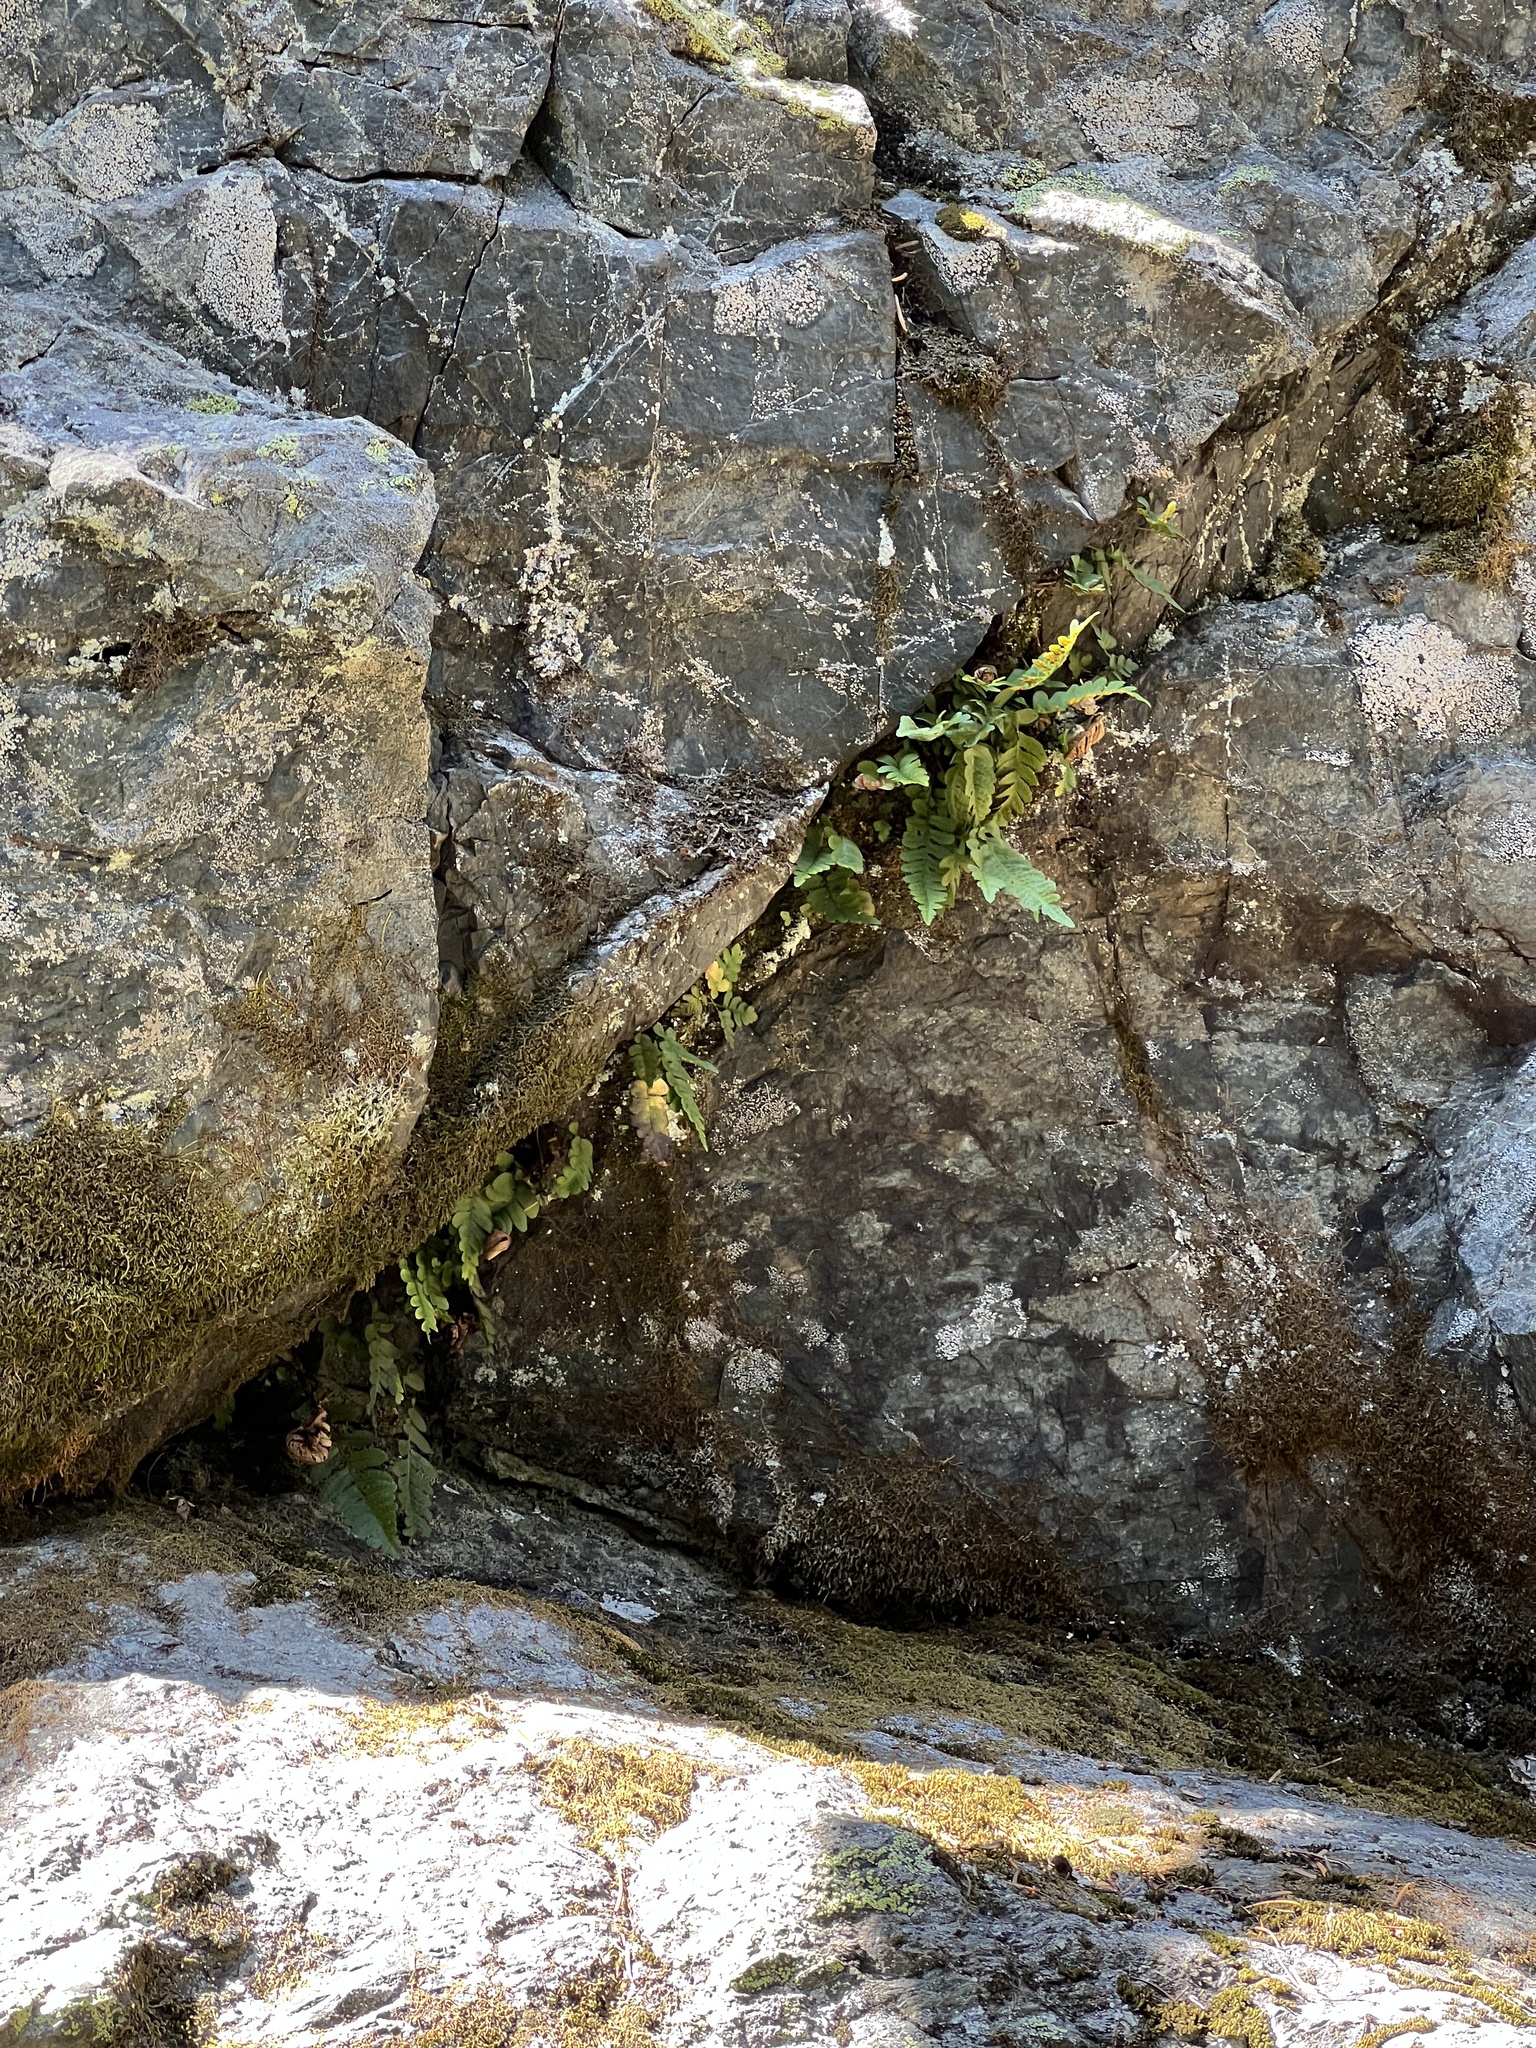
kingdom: Plantae
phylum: Tracheophyta
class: Polypodiopsida
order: Polypodiales
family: Polypodiaceae
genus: Polypodium
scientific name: Polypodium amorphum
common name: Pacific polypody
